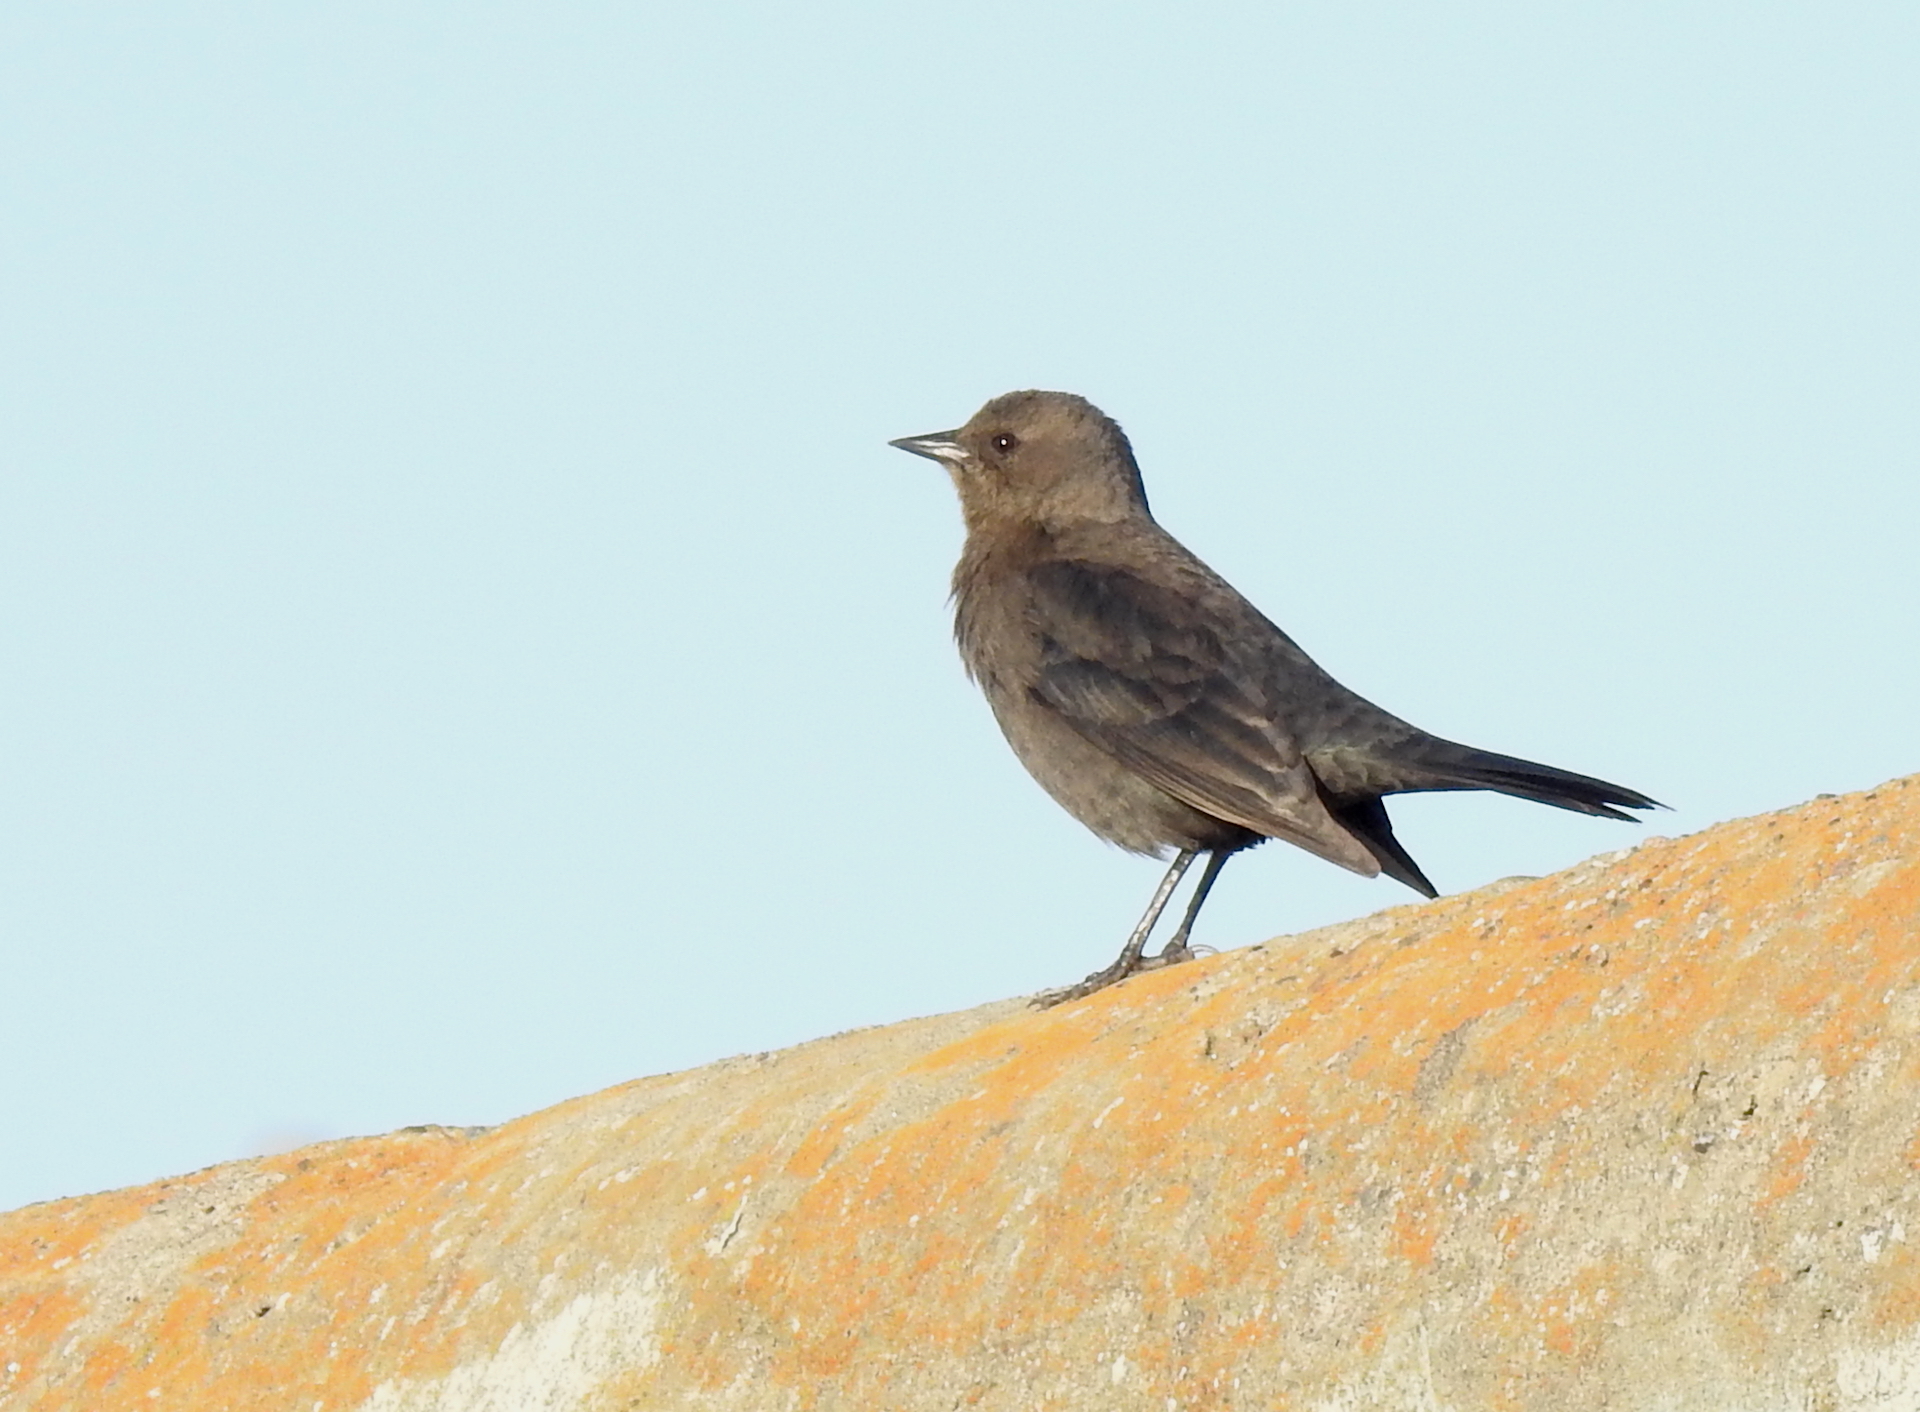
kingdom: Animalia
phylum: Chordata
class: Aves
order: Passeriformes
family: Icteridae
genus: Euphagus
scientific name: Euphagus cyanocephalus
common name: Brewer's blackbird
